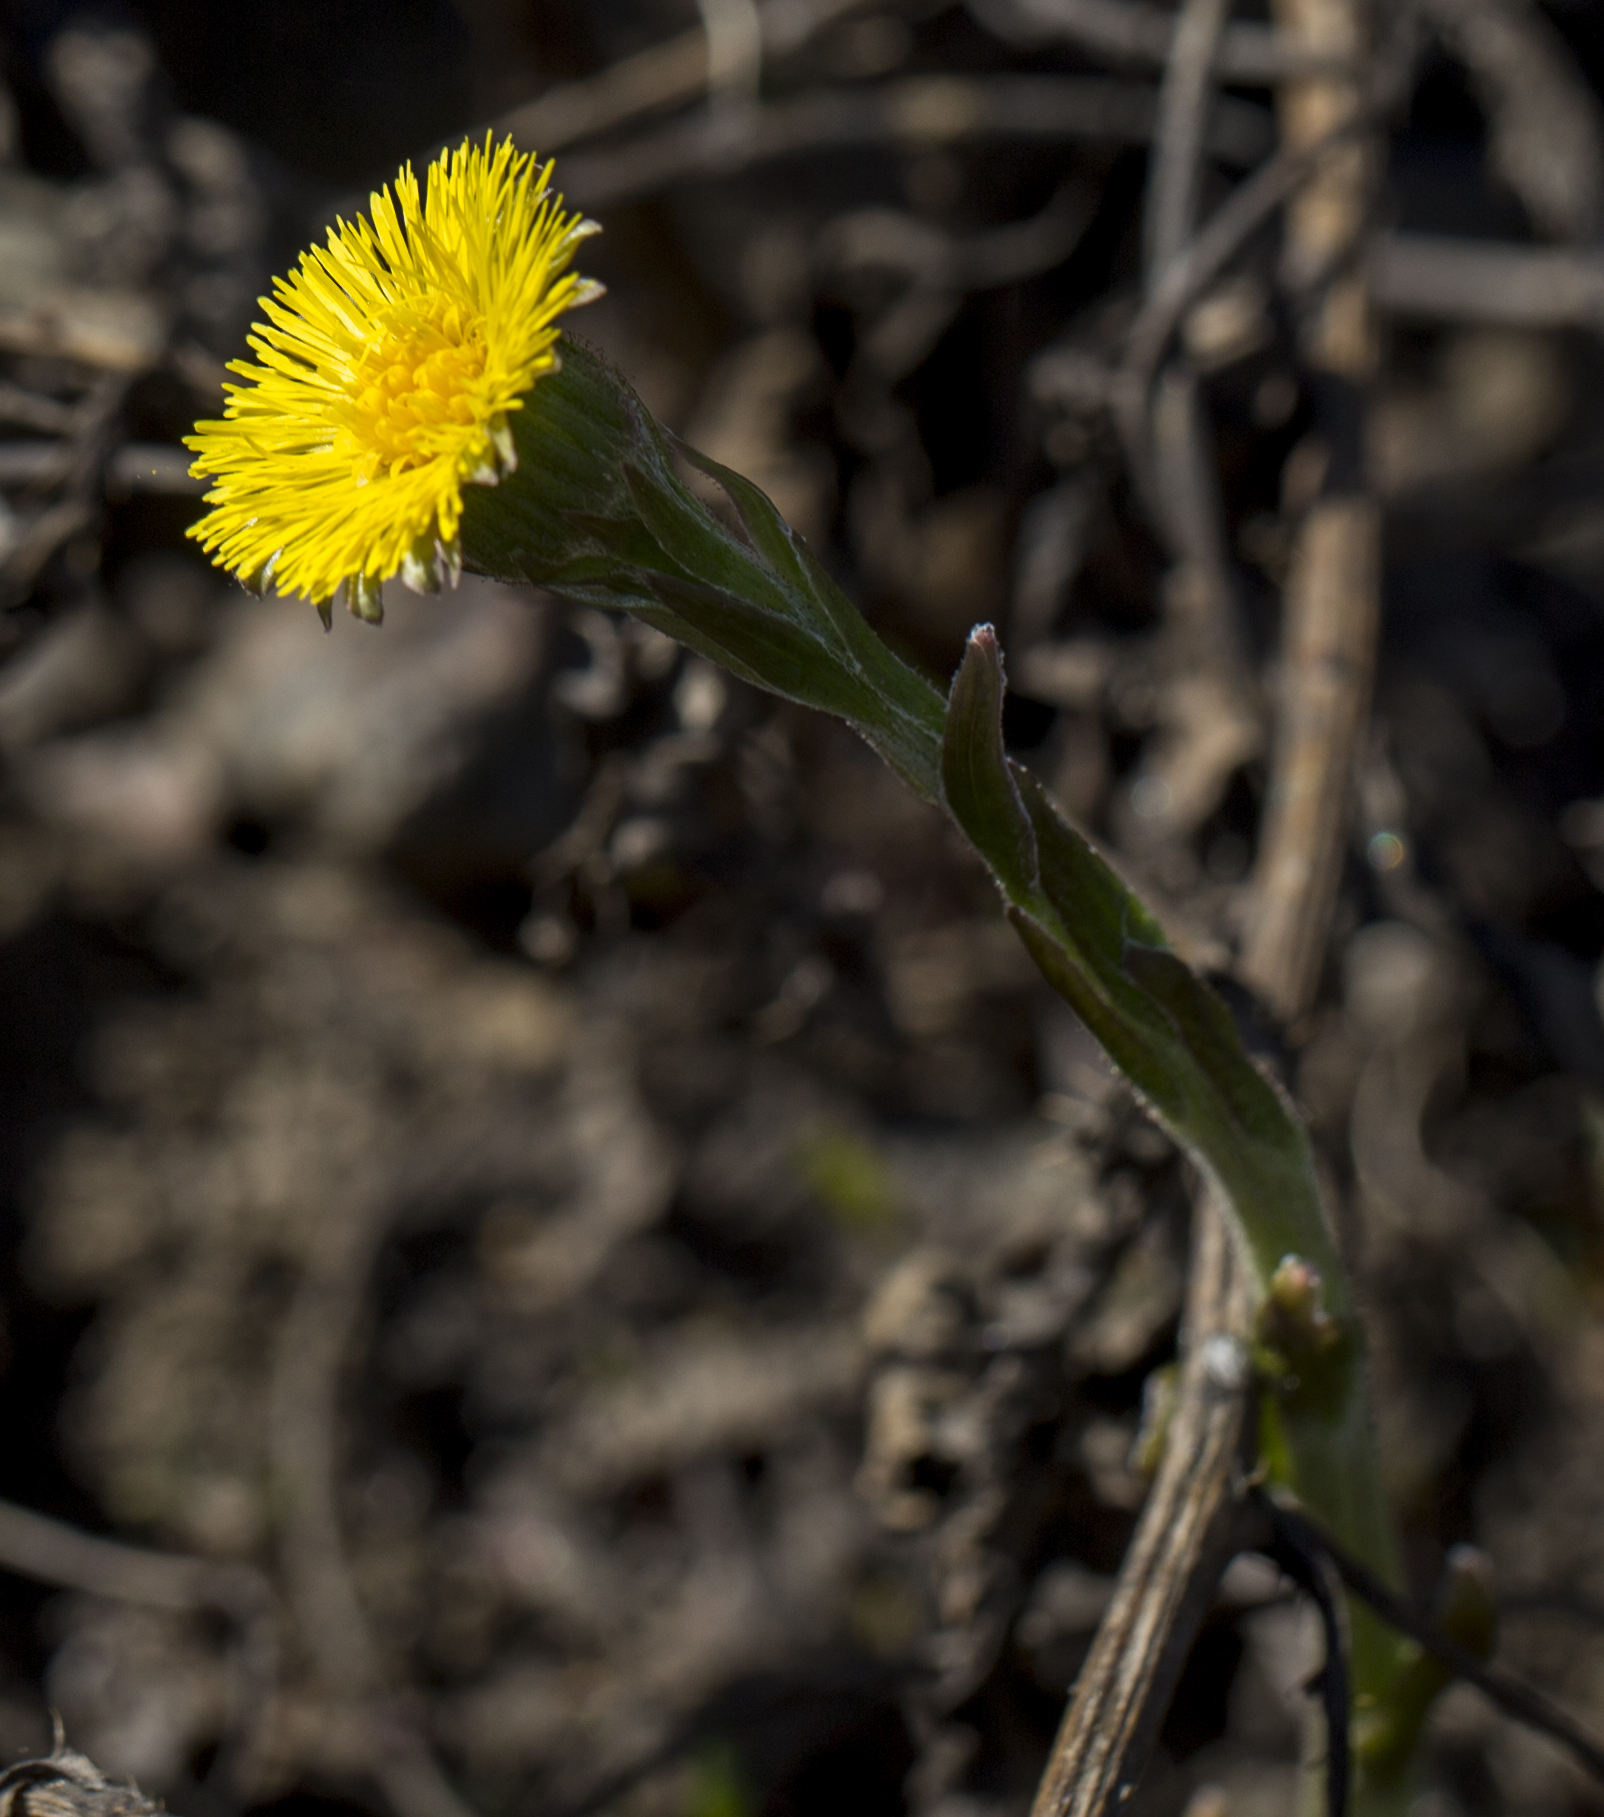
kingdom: Plantae
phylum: Tracheophyta
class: Magnoliopsida
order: Asterales
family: Asteraceae
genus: Tussilago
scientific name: Tussilago farfara
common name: Coltsfoot
